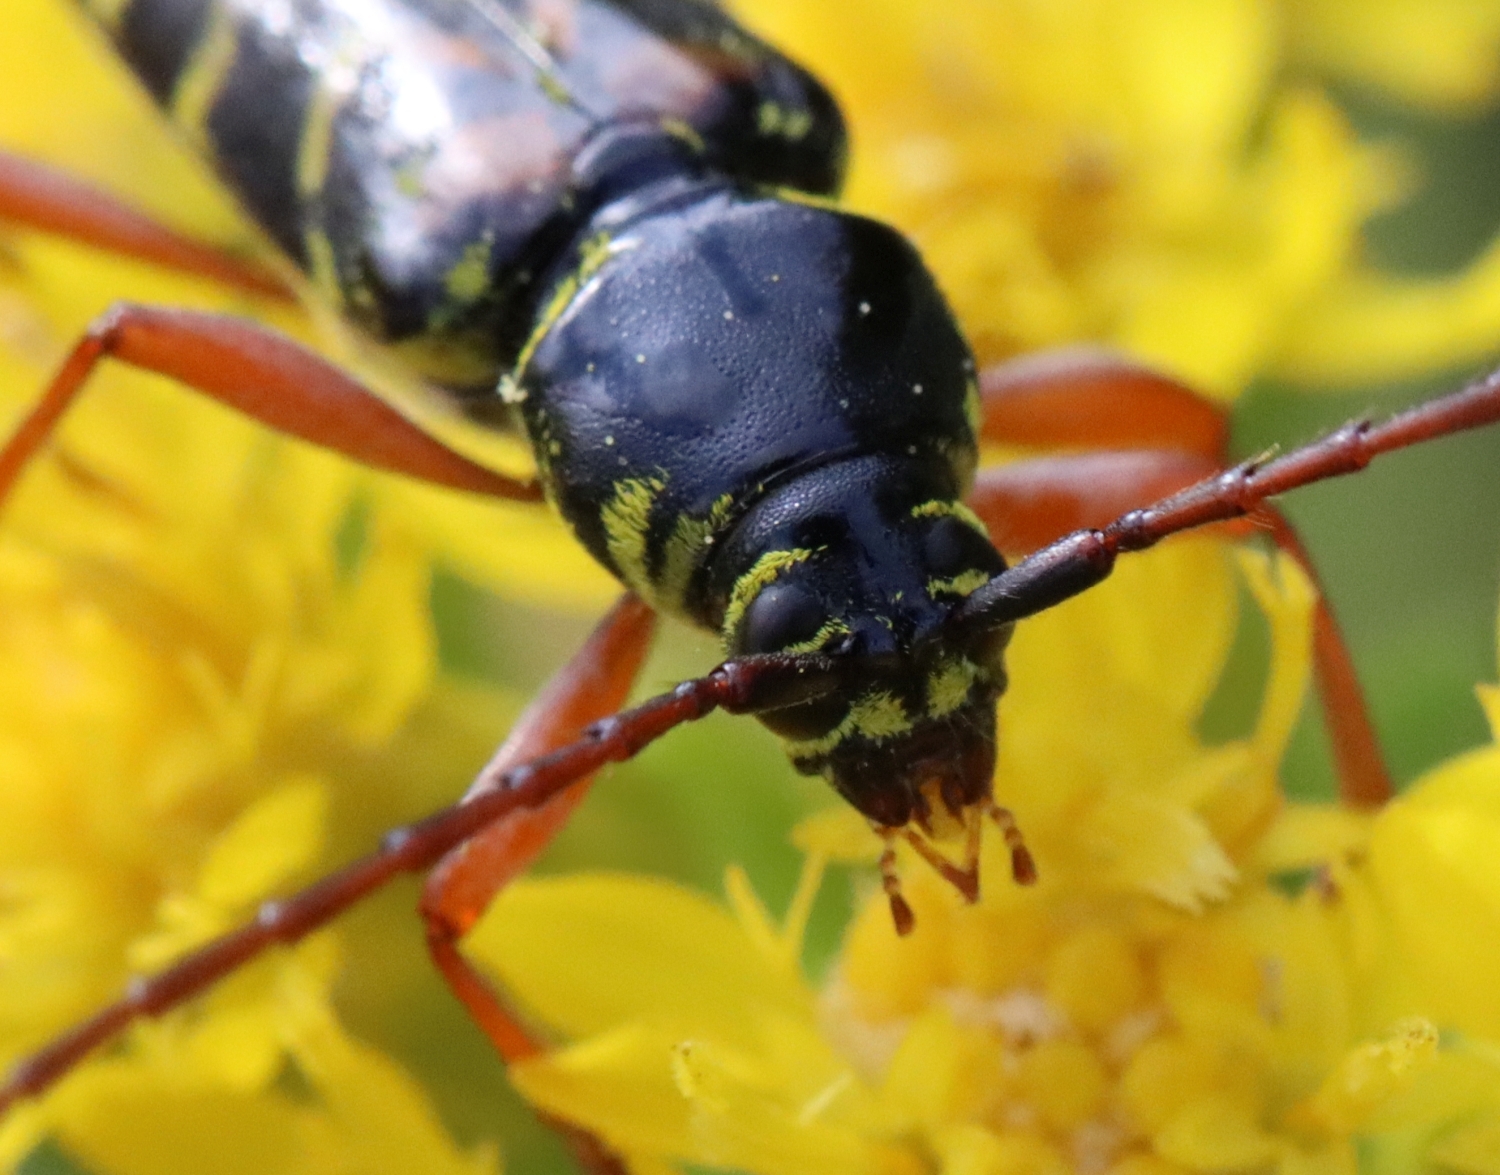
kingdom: Animalia
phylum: Arthropoda
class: Insecta
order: Coleoptera
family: Cerambycidae
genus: Megacyllene
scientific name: Megacyllene robiniae
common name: Locust borer
